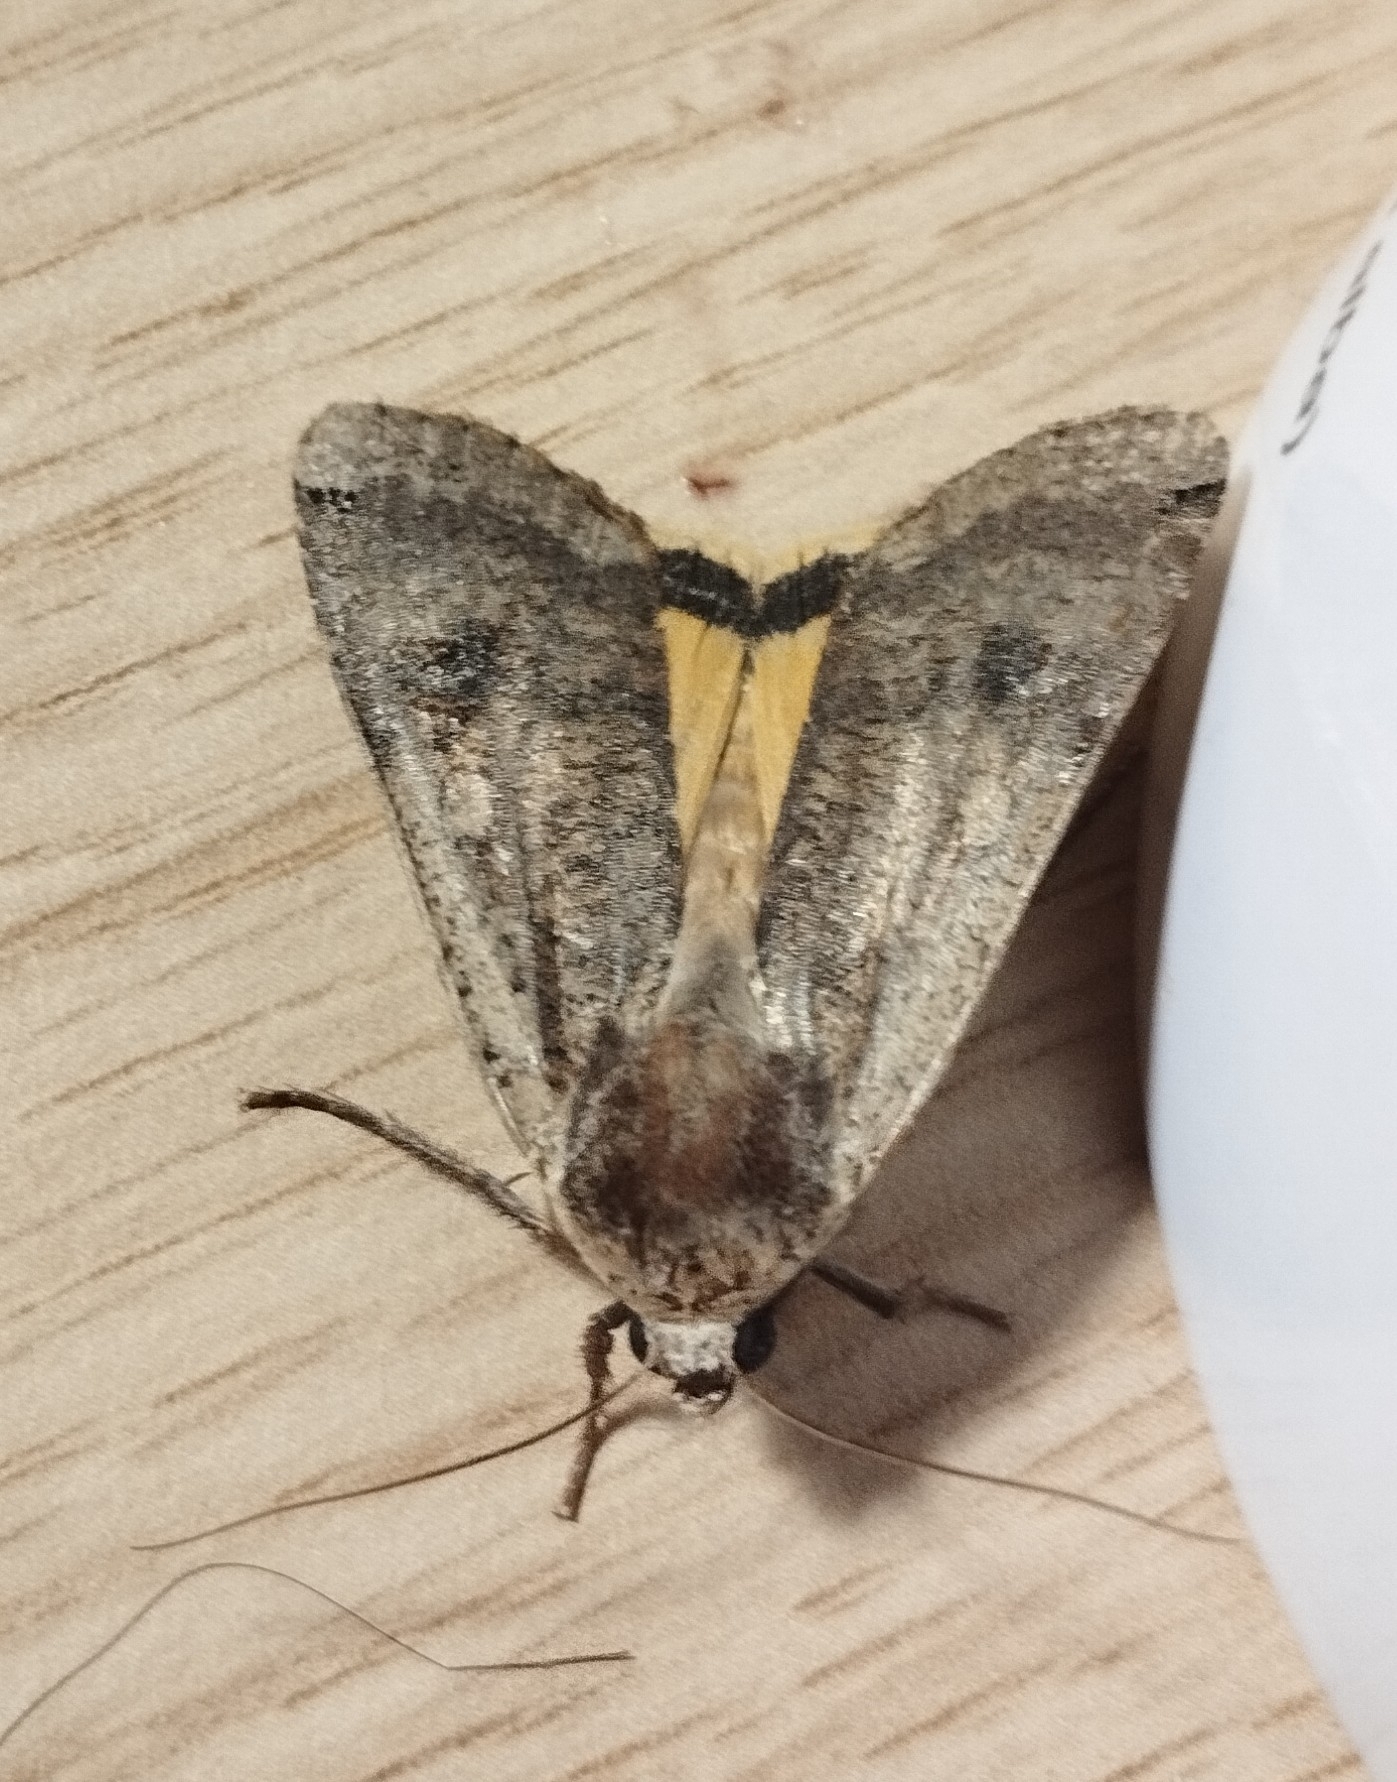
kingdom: Animalia
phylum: Arthropoda
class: Insecta
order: Lepidoptera
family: Noctuidae
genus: Noctua
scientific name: Noctua pronuba
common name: Large yellow underwing
